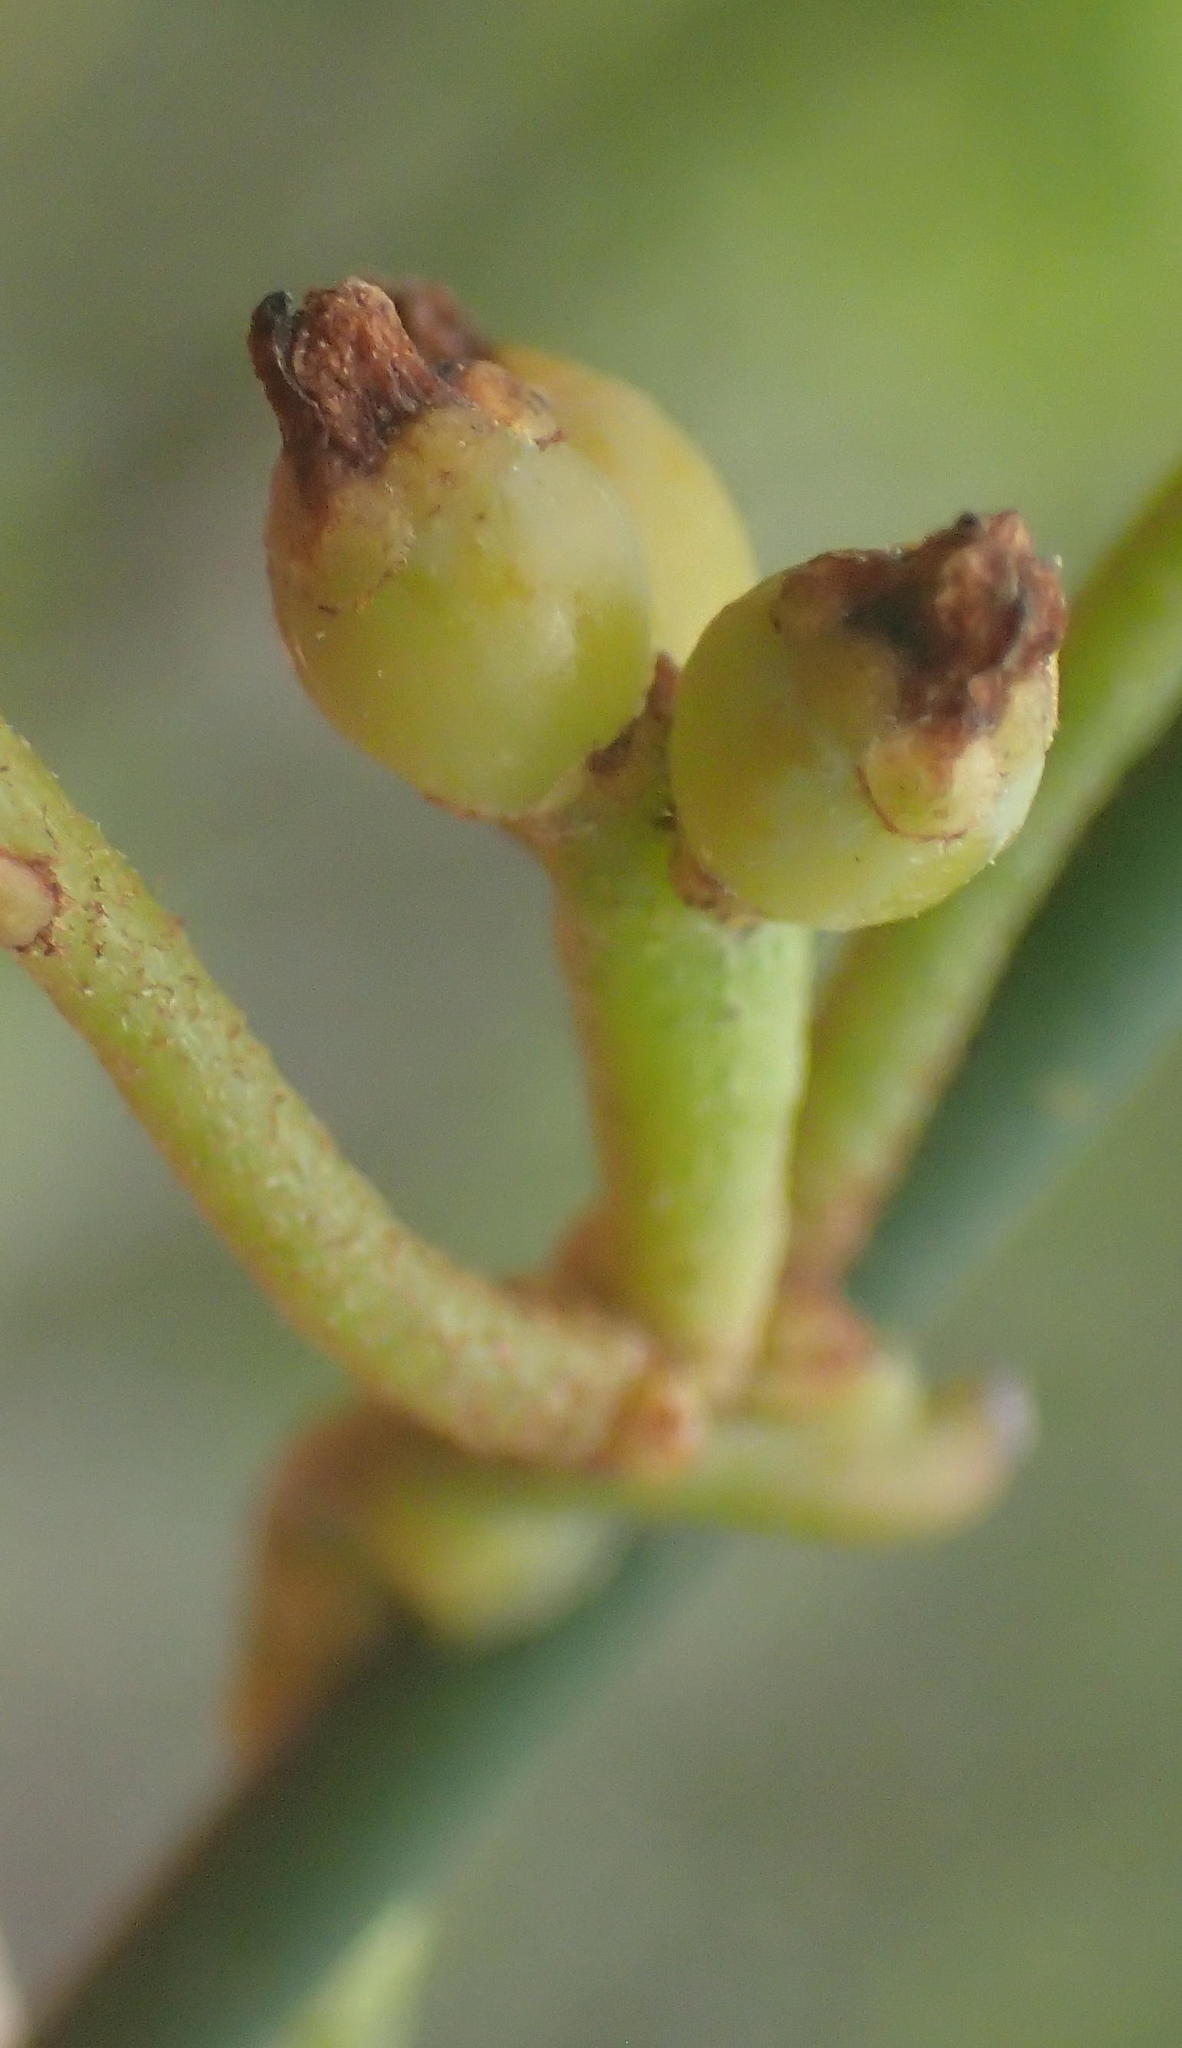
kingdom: Plantae
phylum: Tracheophyta
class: Magnoliopsida
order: Laurales
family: Lauraceae
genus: Cassytha
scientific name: Cassytha ciliolata
